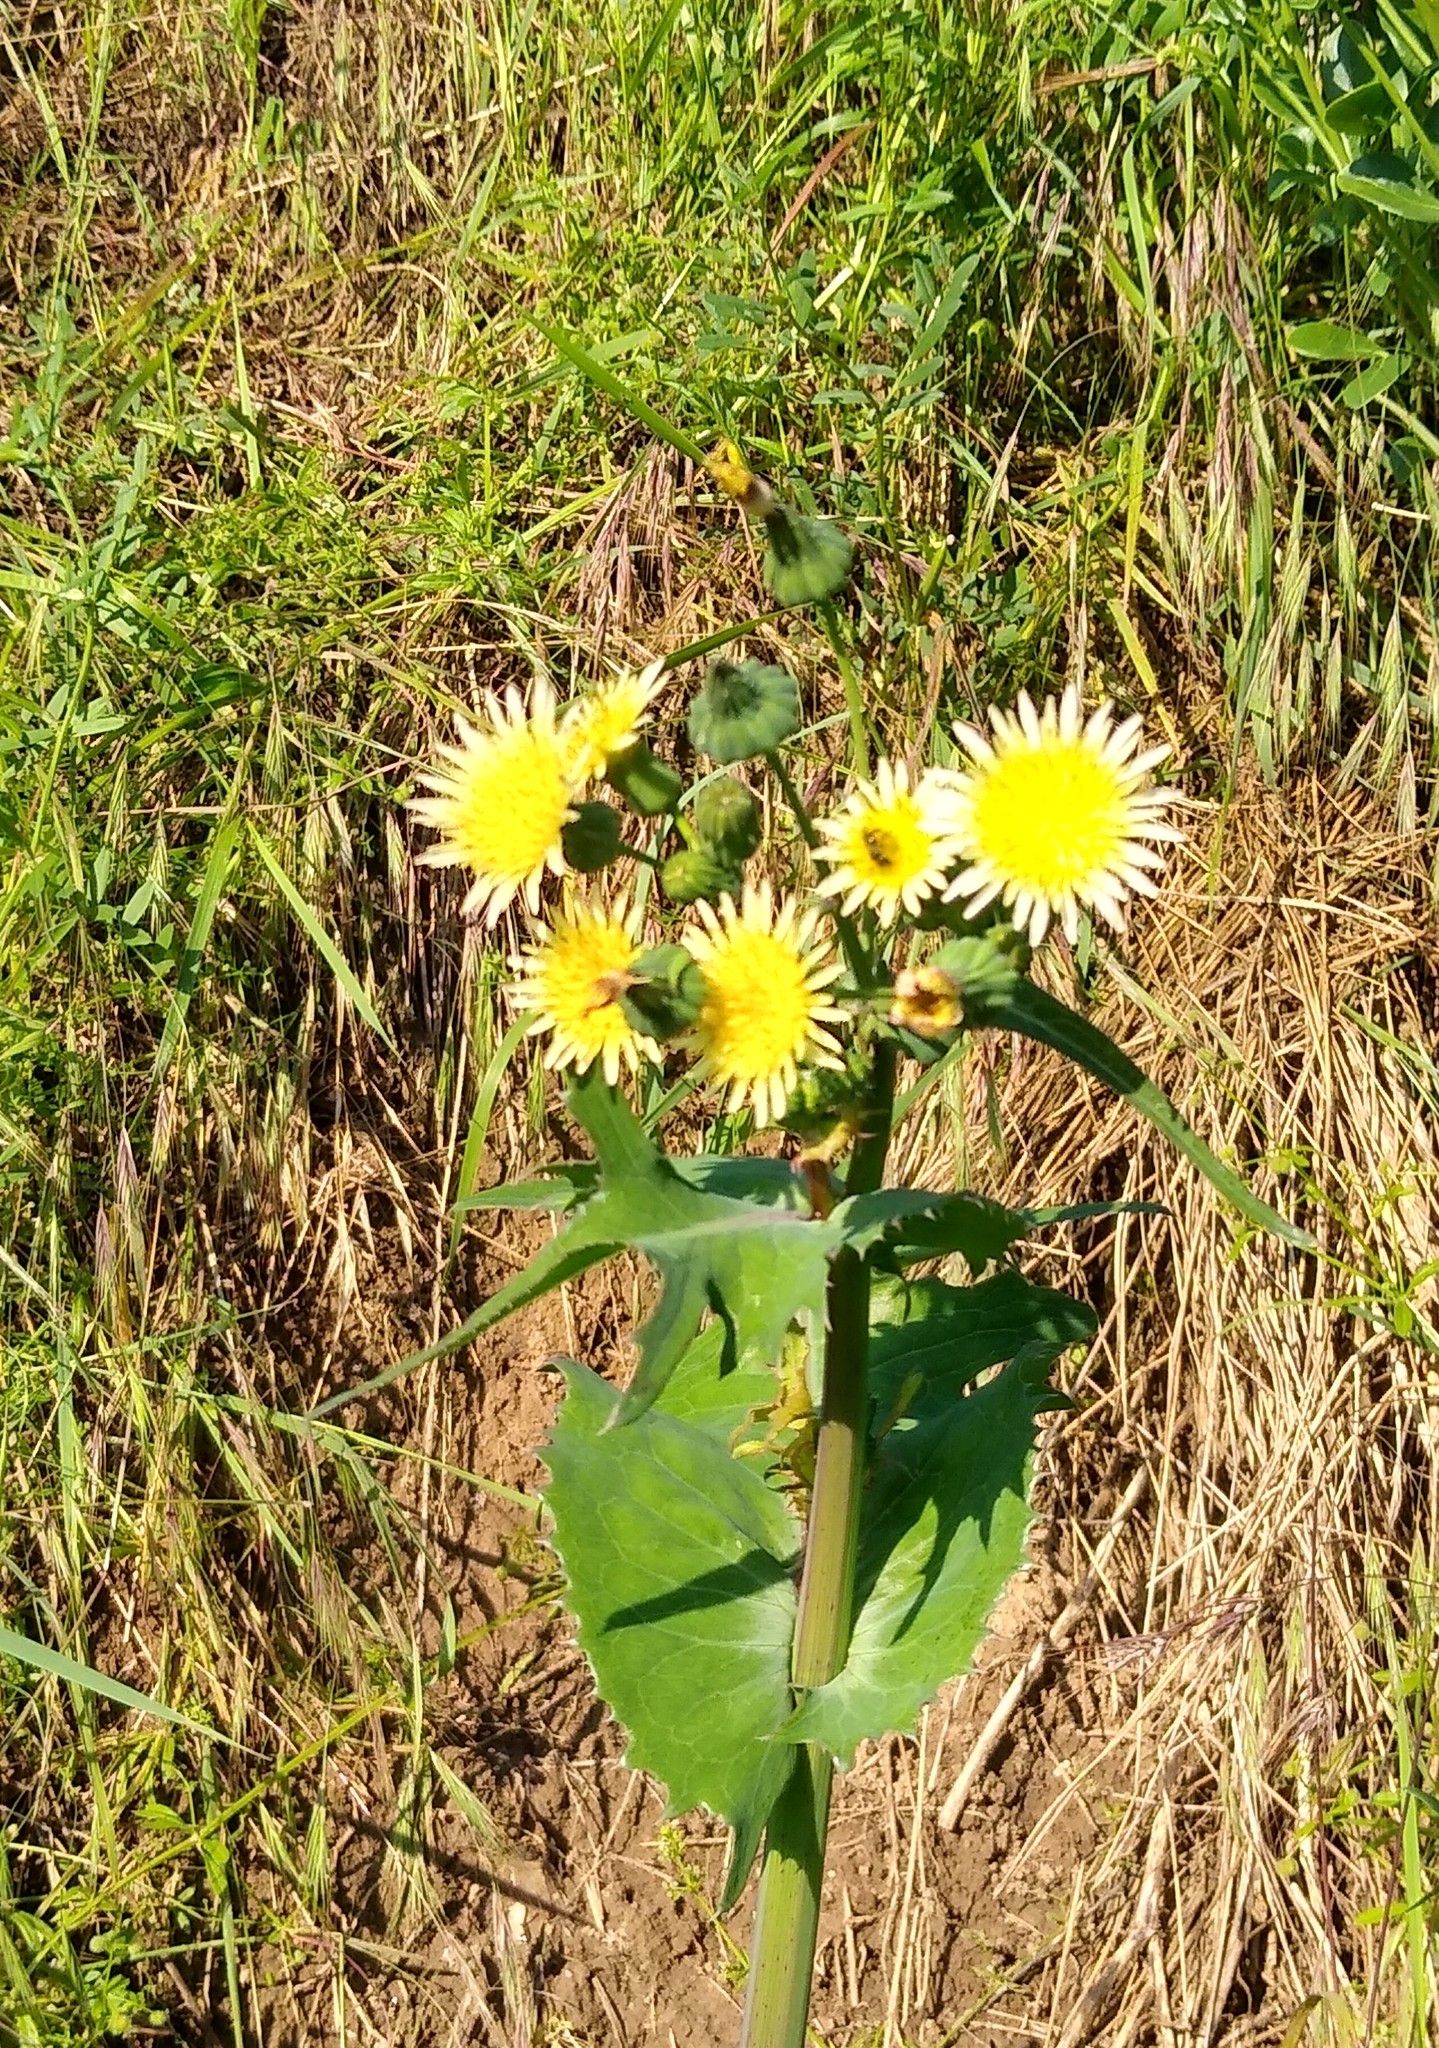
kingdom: Plantae
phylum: Tracheophyta
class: Magnoliopsida
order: Asterales
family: Asteraceae
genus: Sonchus
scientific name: Sonchus oleraceus
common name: Common sowthistle
